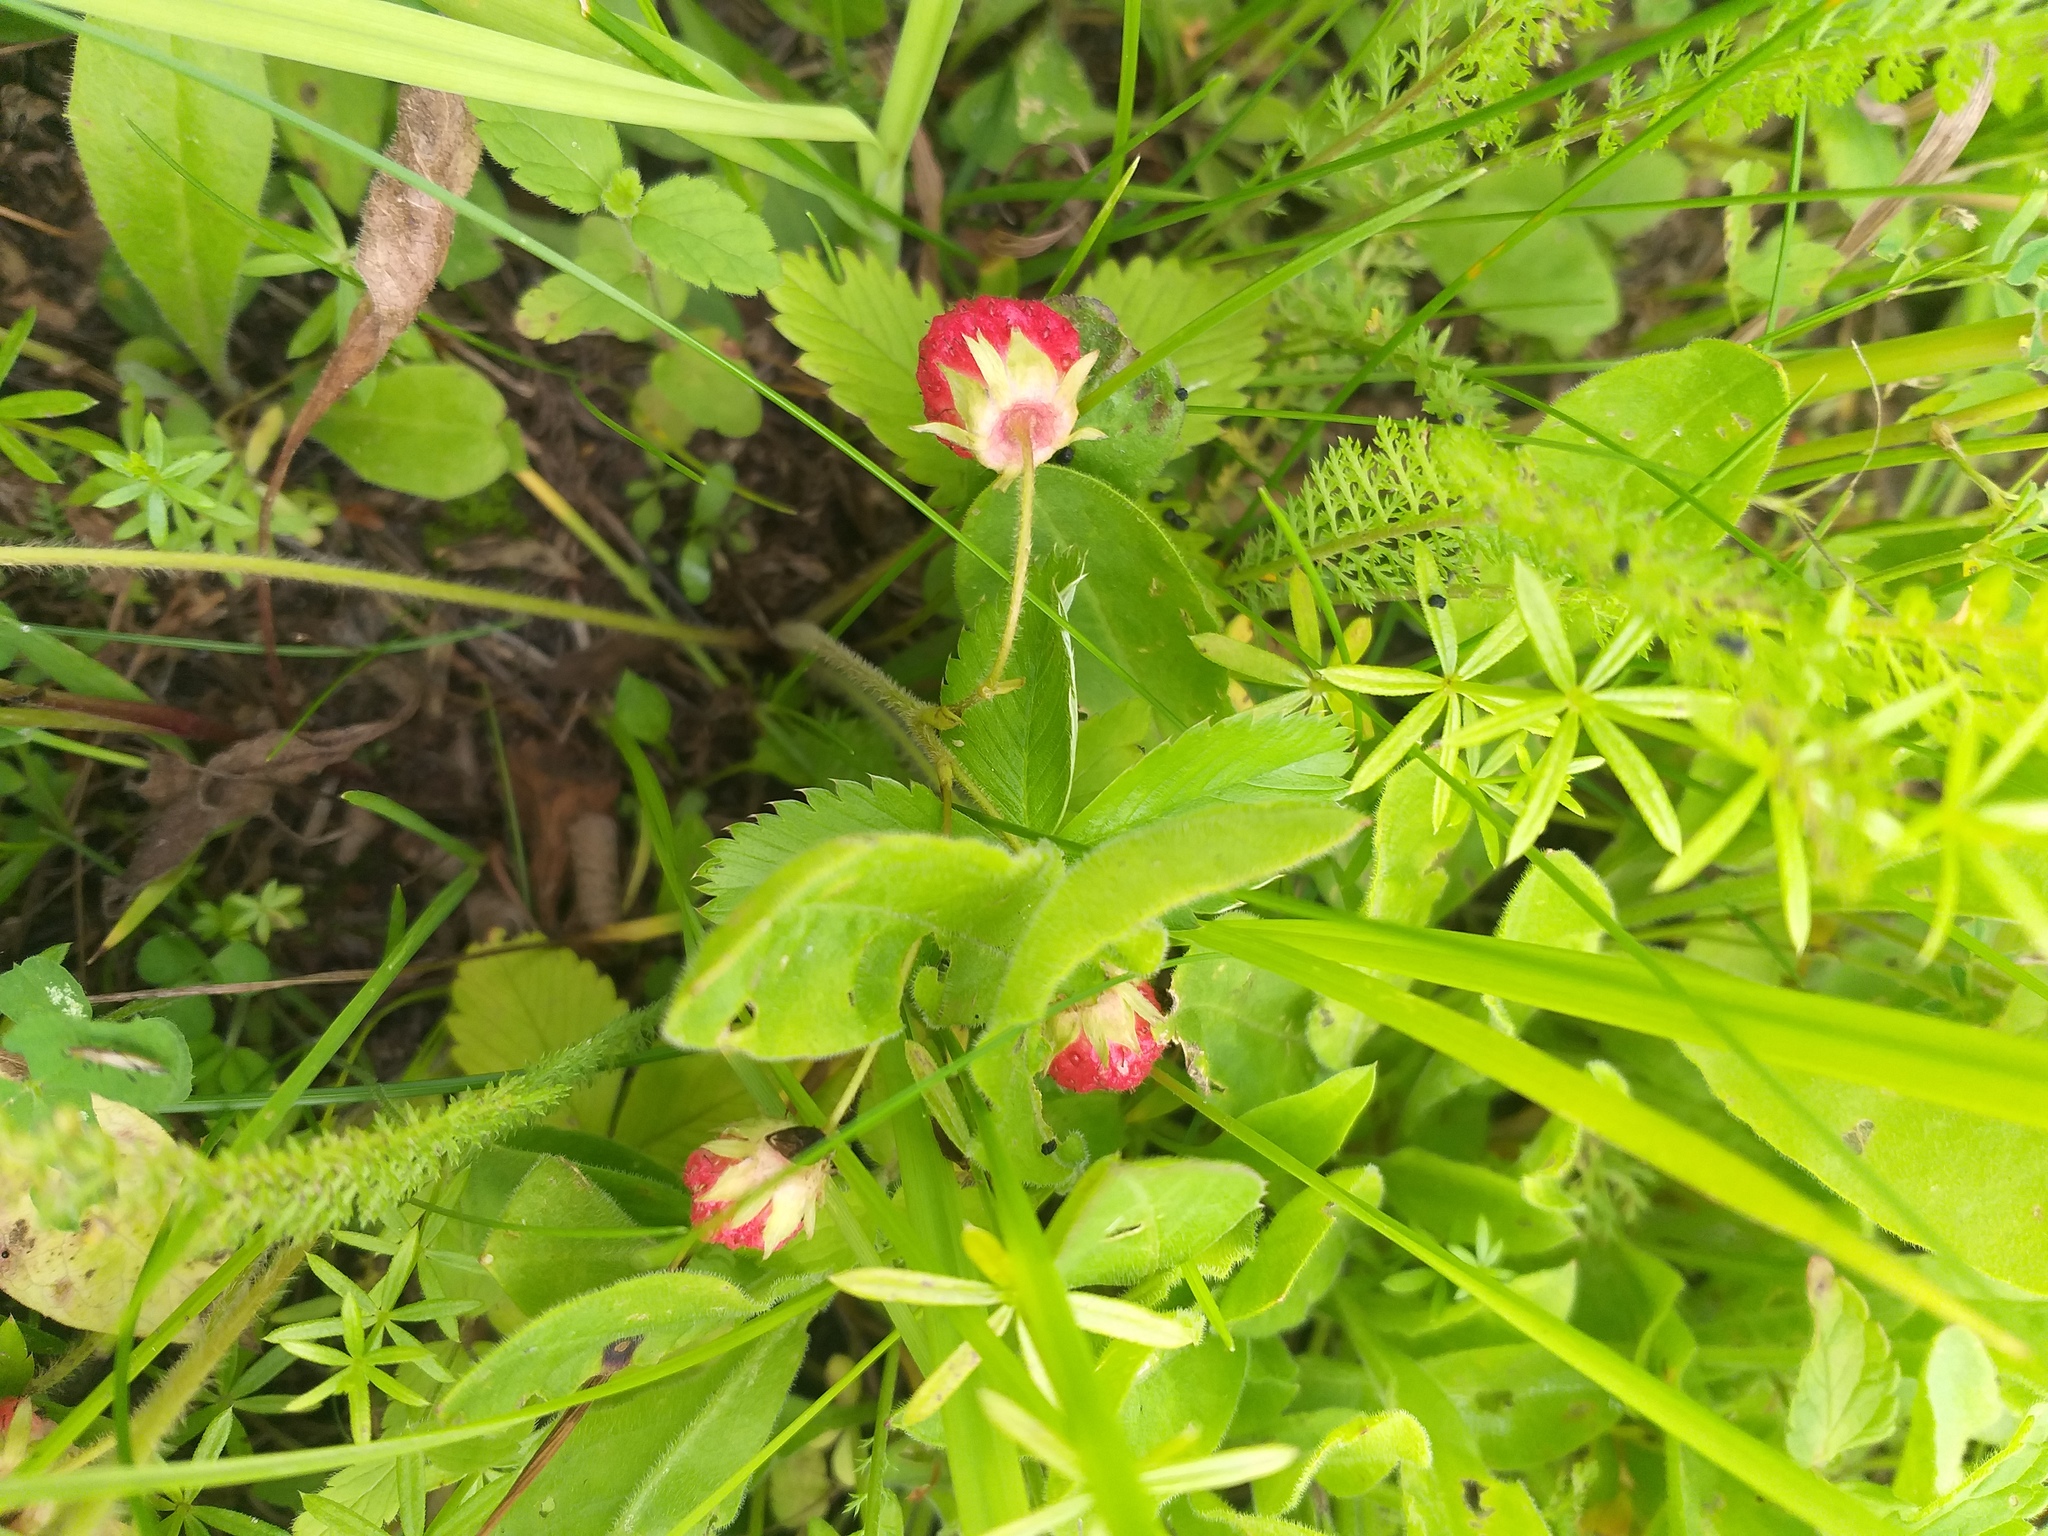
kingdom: Plantae
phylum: Tracheophyta
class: Magnoliopsida
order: Rosales
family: Rosaceae
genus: Fragaria
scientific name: Fragaria viridis
